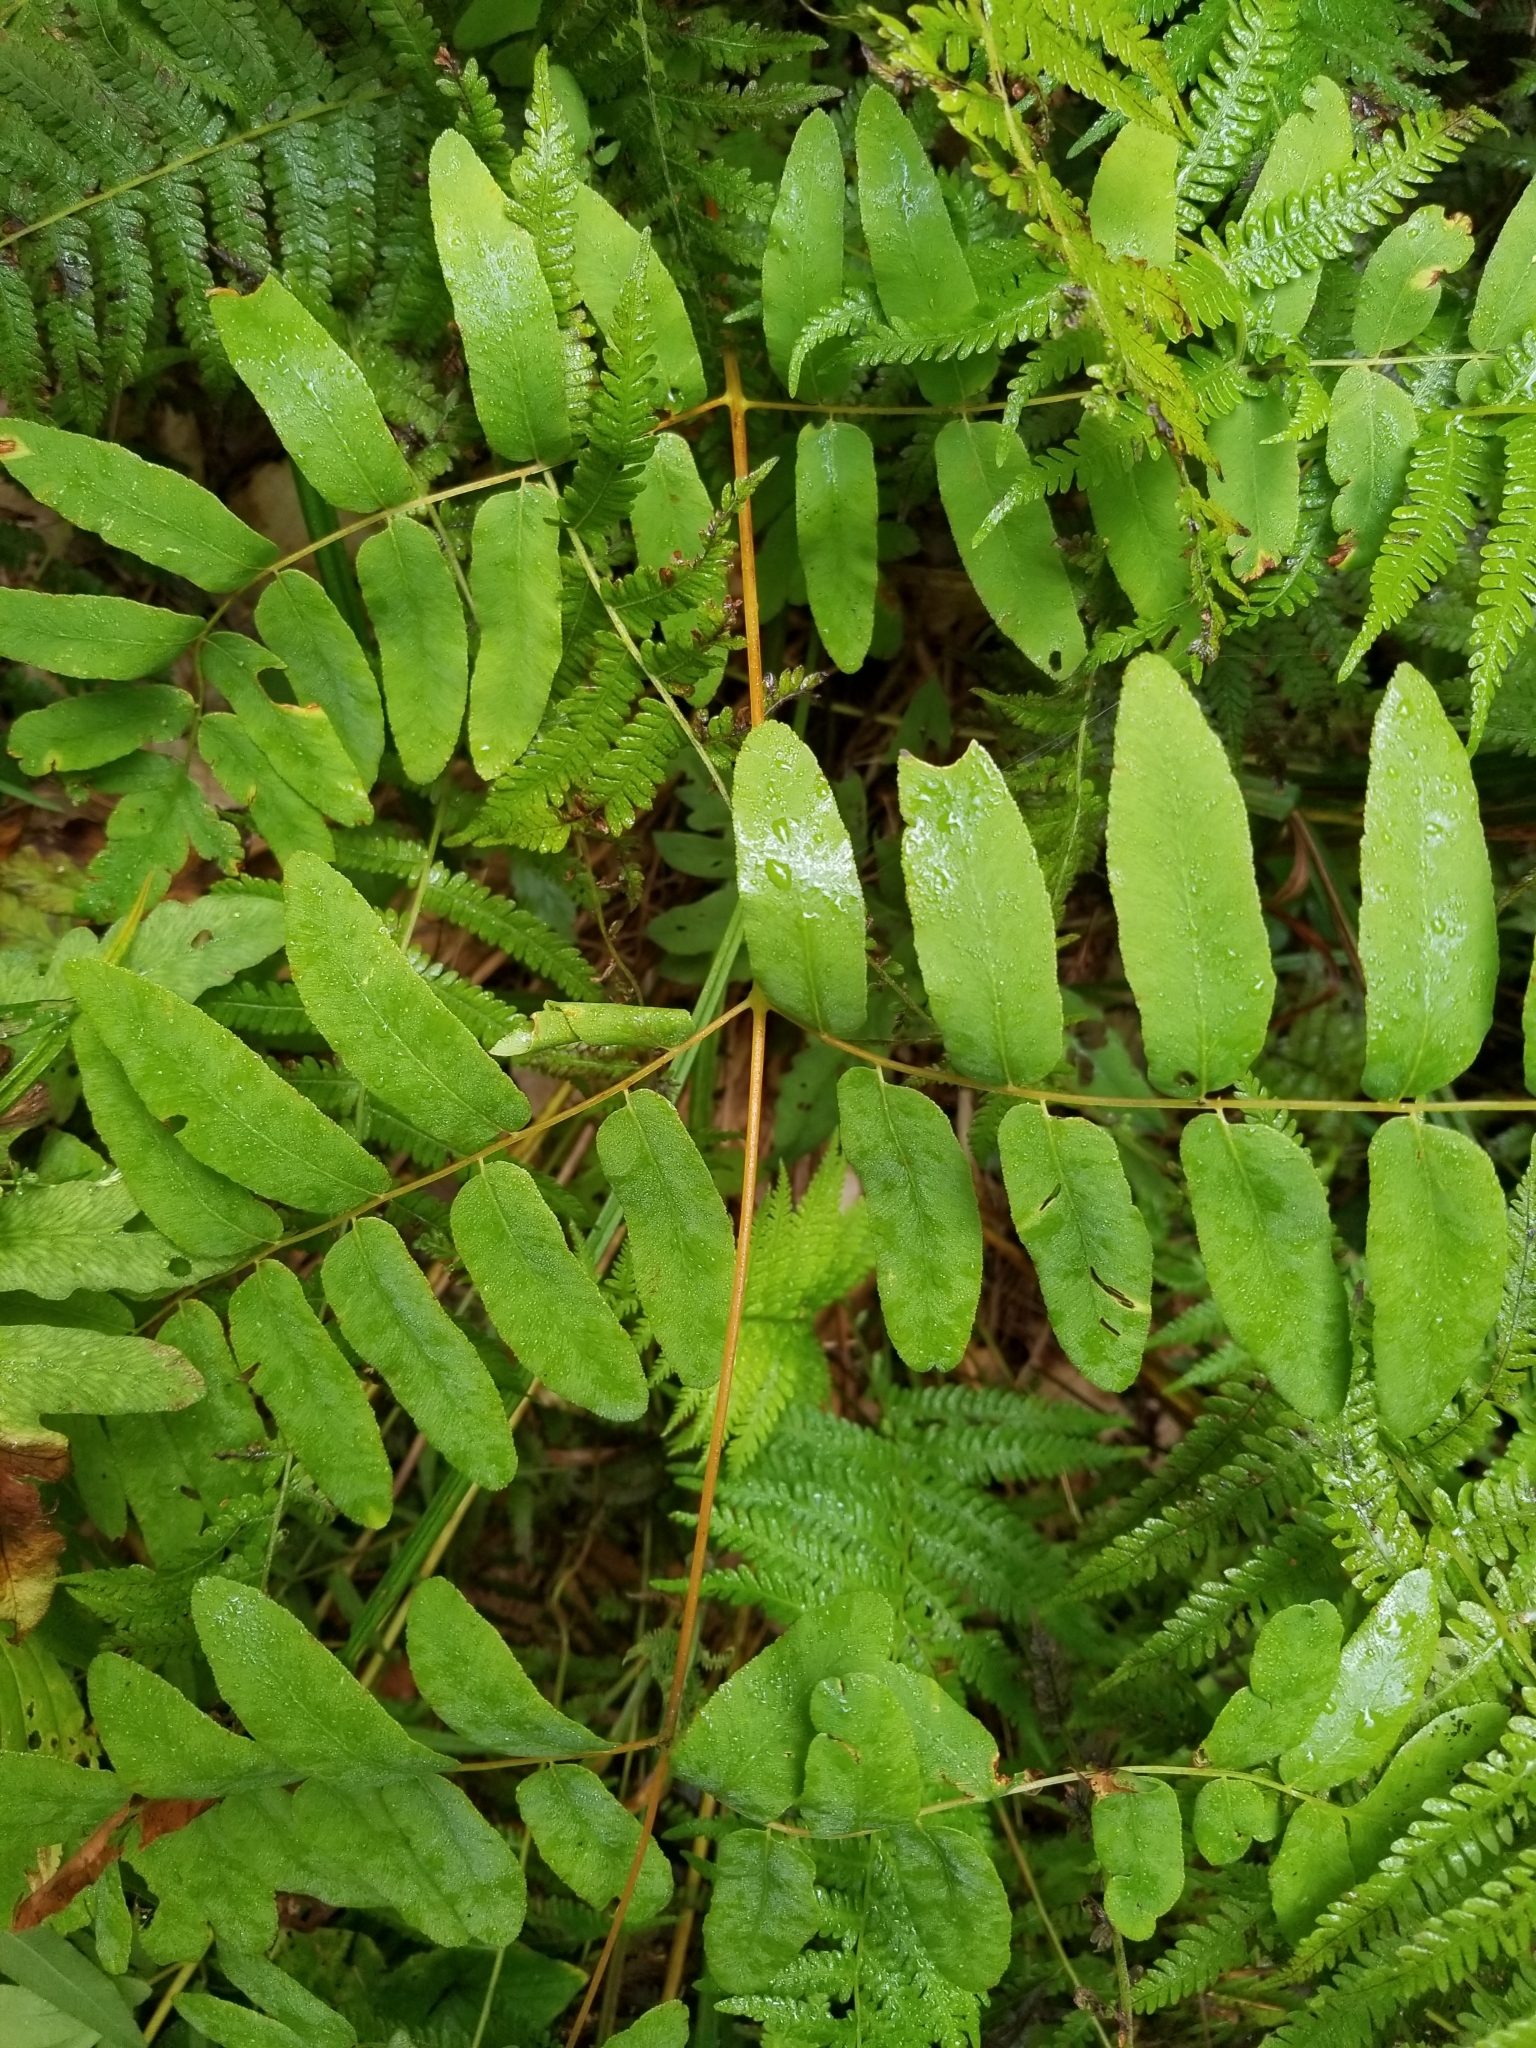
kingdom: Plantae
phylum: Tracheophyta
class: Polypodiopsida
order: Osmundales
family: Osmundaceae
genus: Osmunda
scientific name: Osmunda spectabilis
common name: American royal fern
